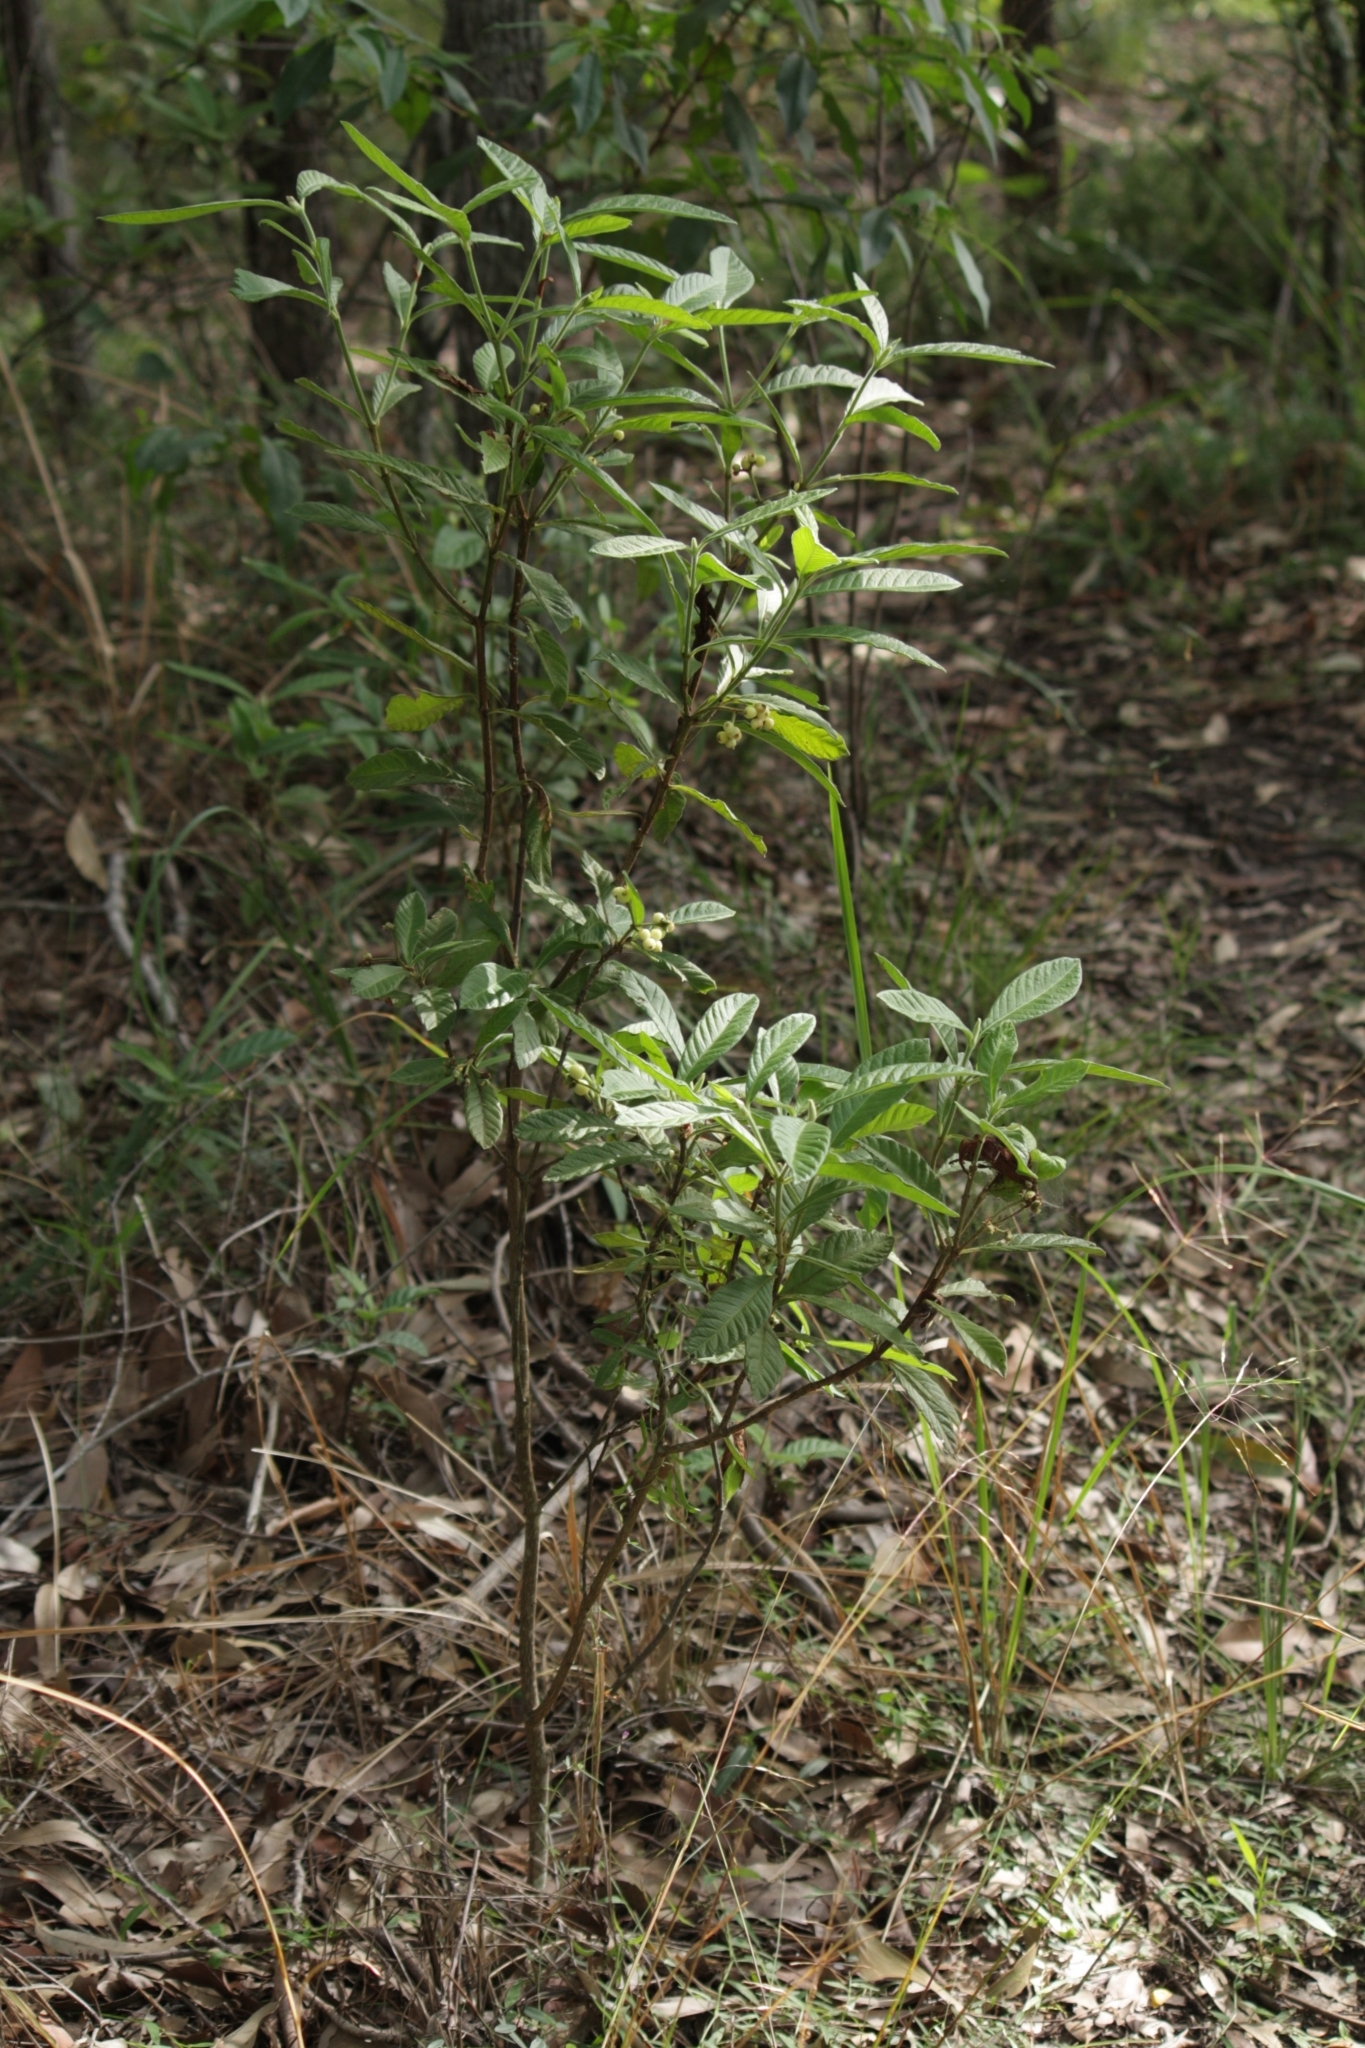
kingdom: Plantae
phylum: Tracheophyta
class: Magnoliopsida
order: Gentianales
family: Rubiaceae
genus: Psychotria
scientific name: Psychotria loniceroides
